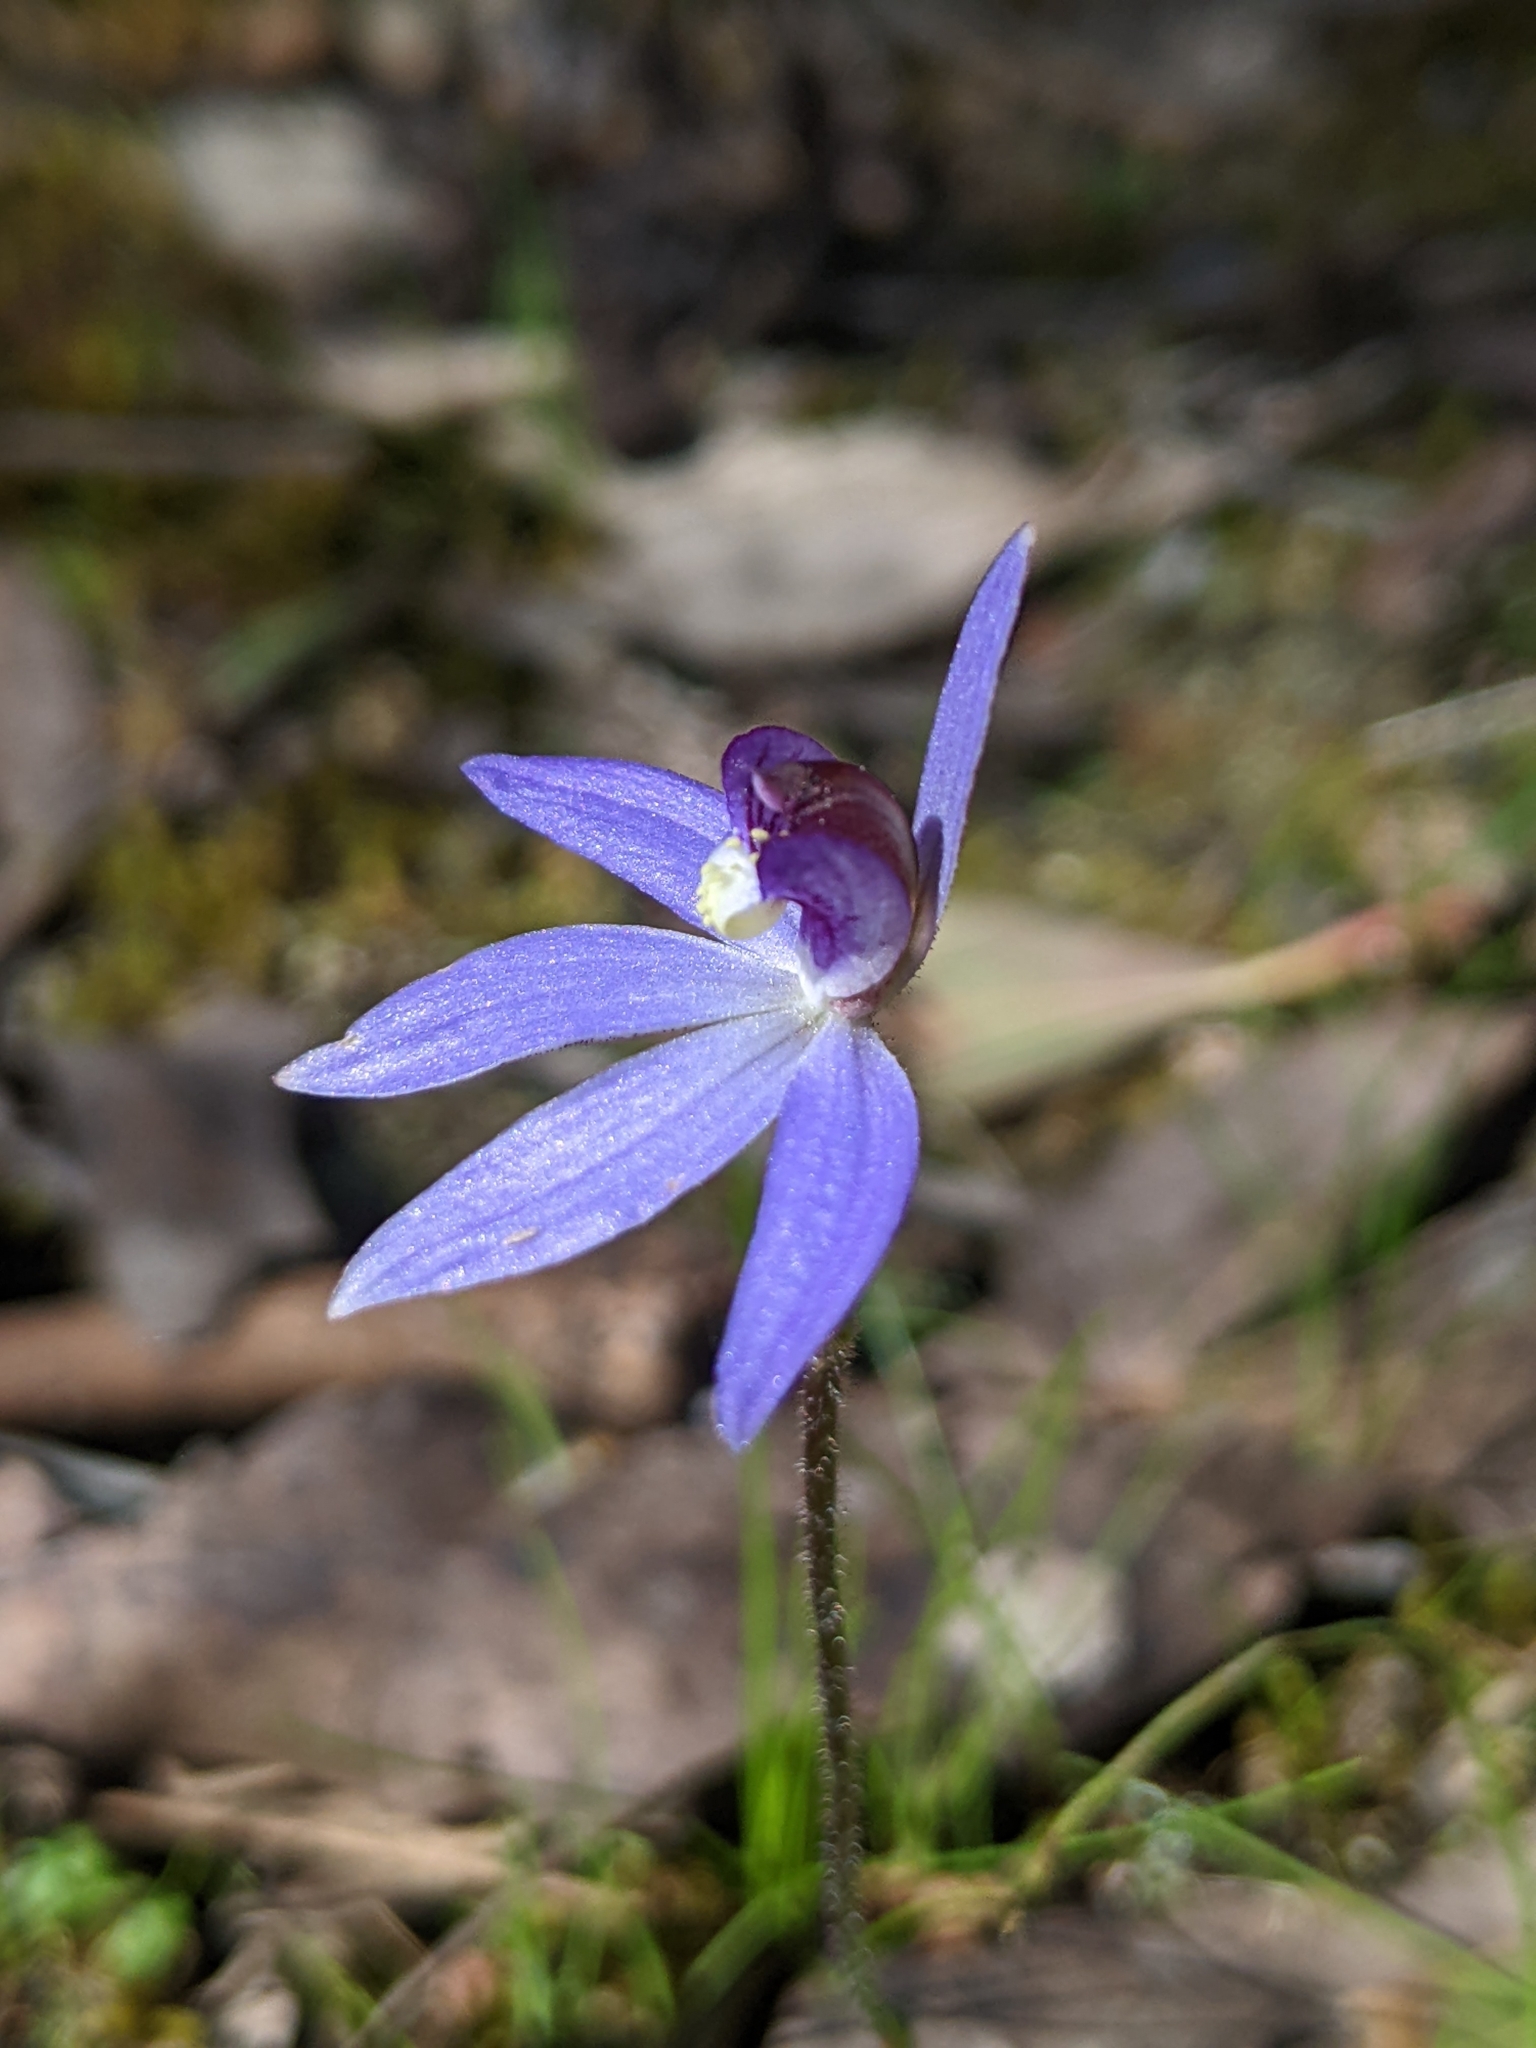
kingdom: Plantae
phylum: Tracheophyta
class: Liliopsida
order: Asparagales
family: Orchidaceae
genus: Caladenia
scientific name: Caladenia caerulea
